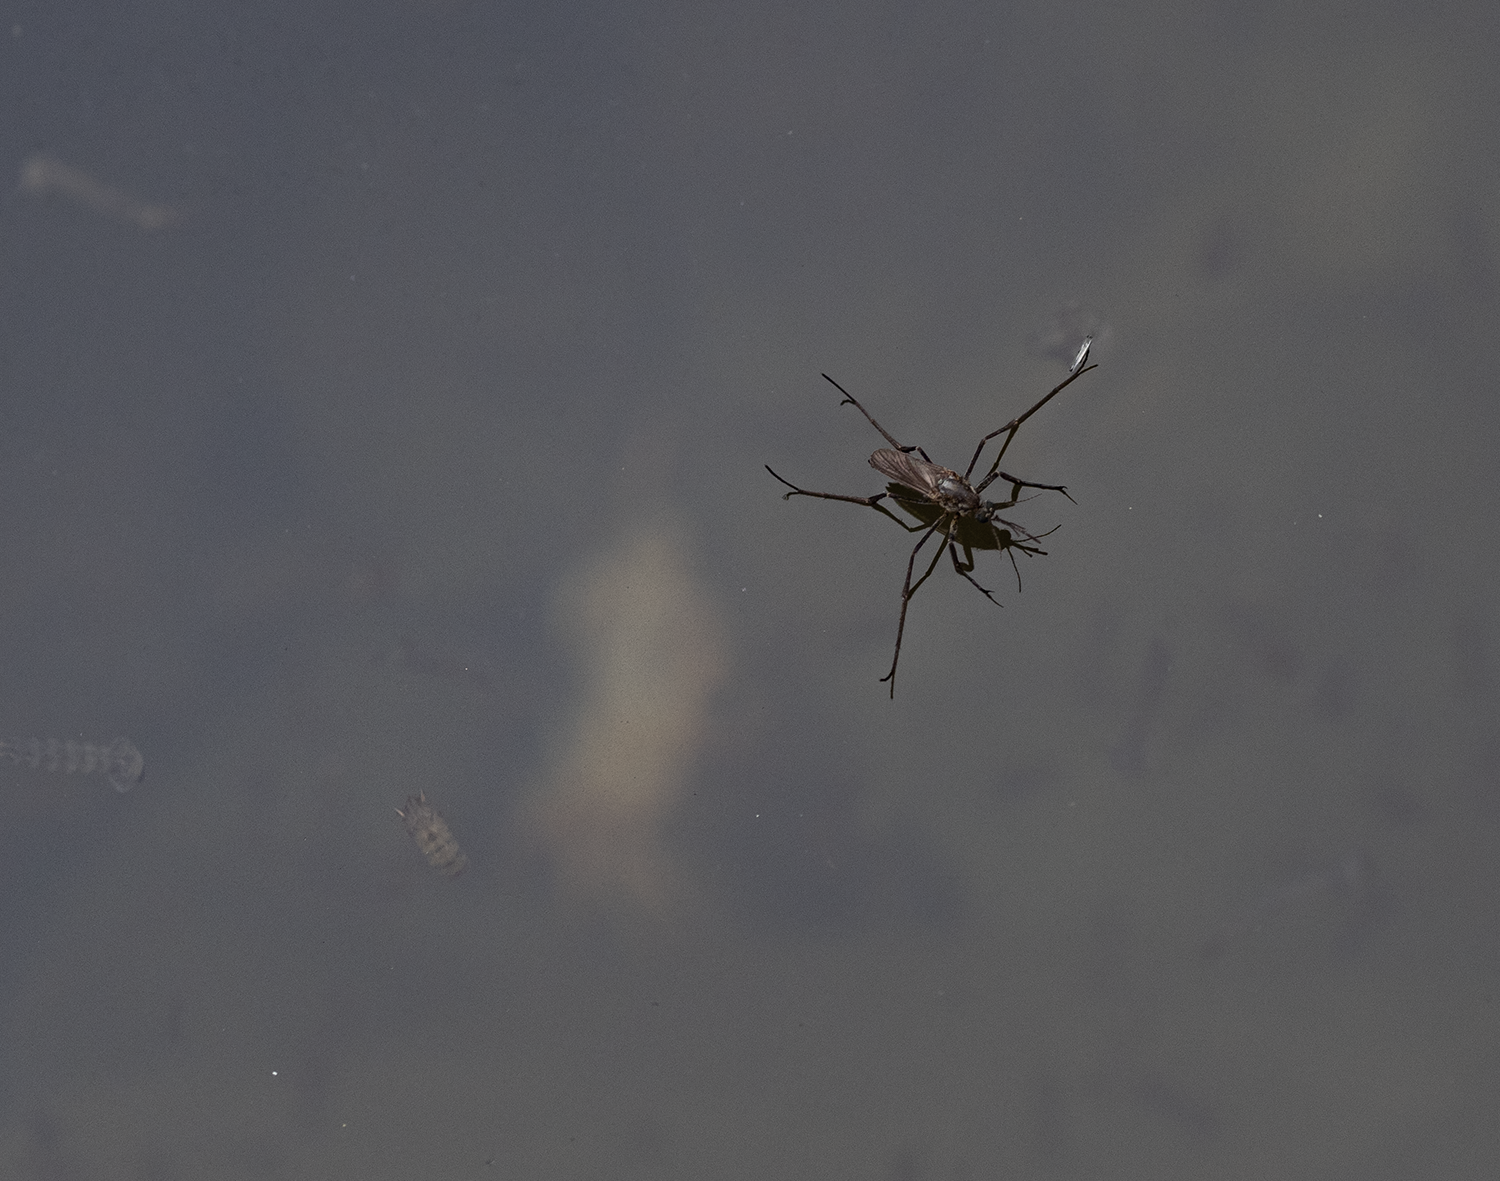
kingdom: Animalia
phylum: Arthropoda
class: Insecta
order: Diptera
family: Culicidae
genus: Opifex
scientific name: Opifex fuscus
